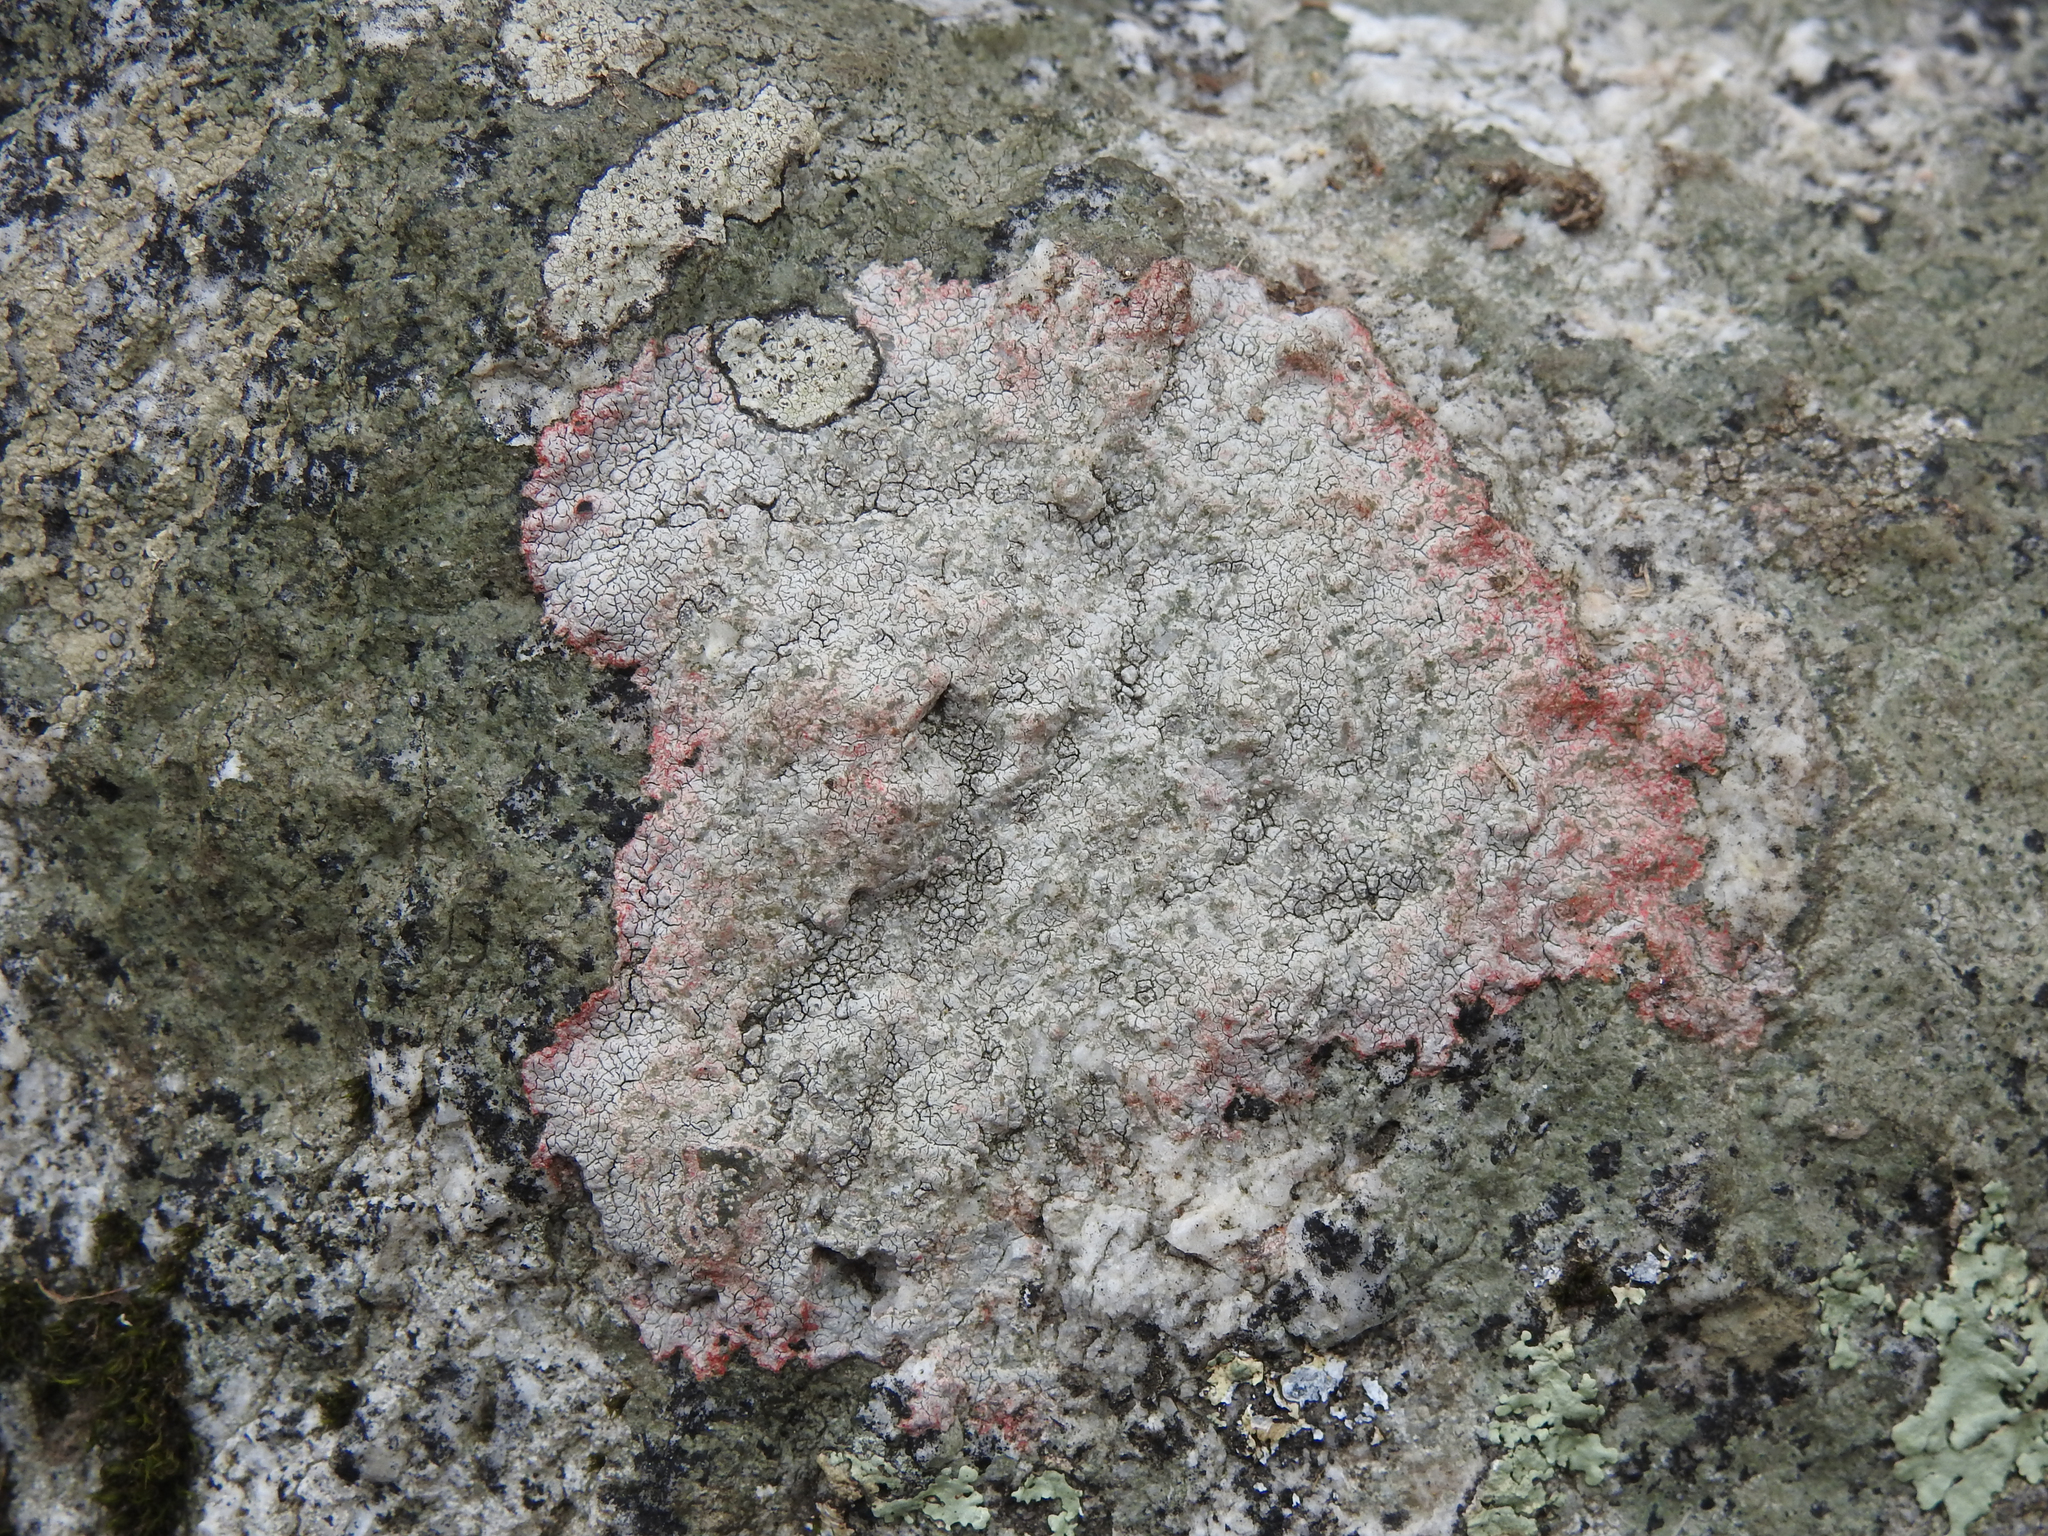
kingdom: Fungi
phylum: Ascomycota
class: Lecanoromycetes
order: Lecideales
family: Lecideaceae
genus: Porpidia
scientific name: Porpidia albocaerulescens
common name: Smokey-eyed boulder lichen
